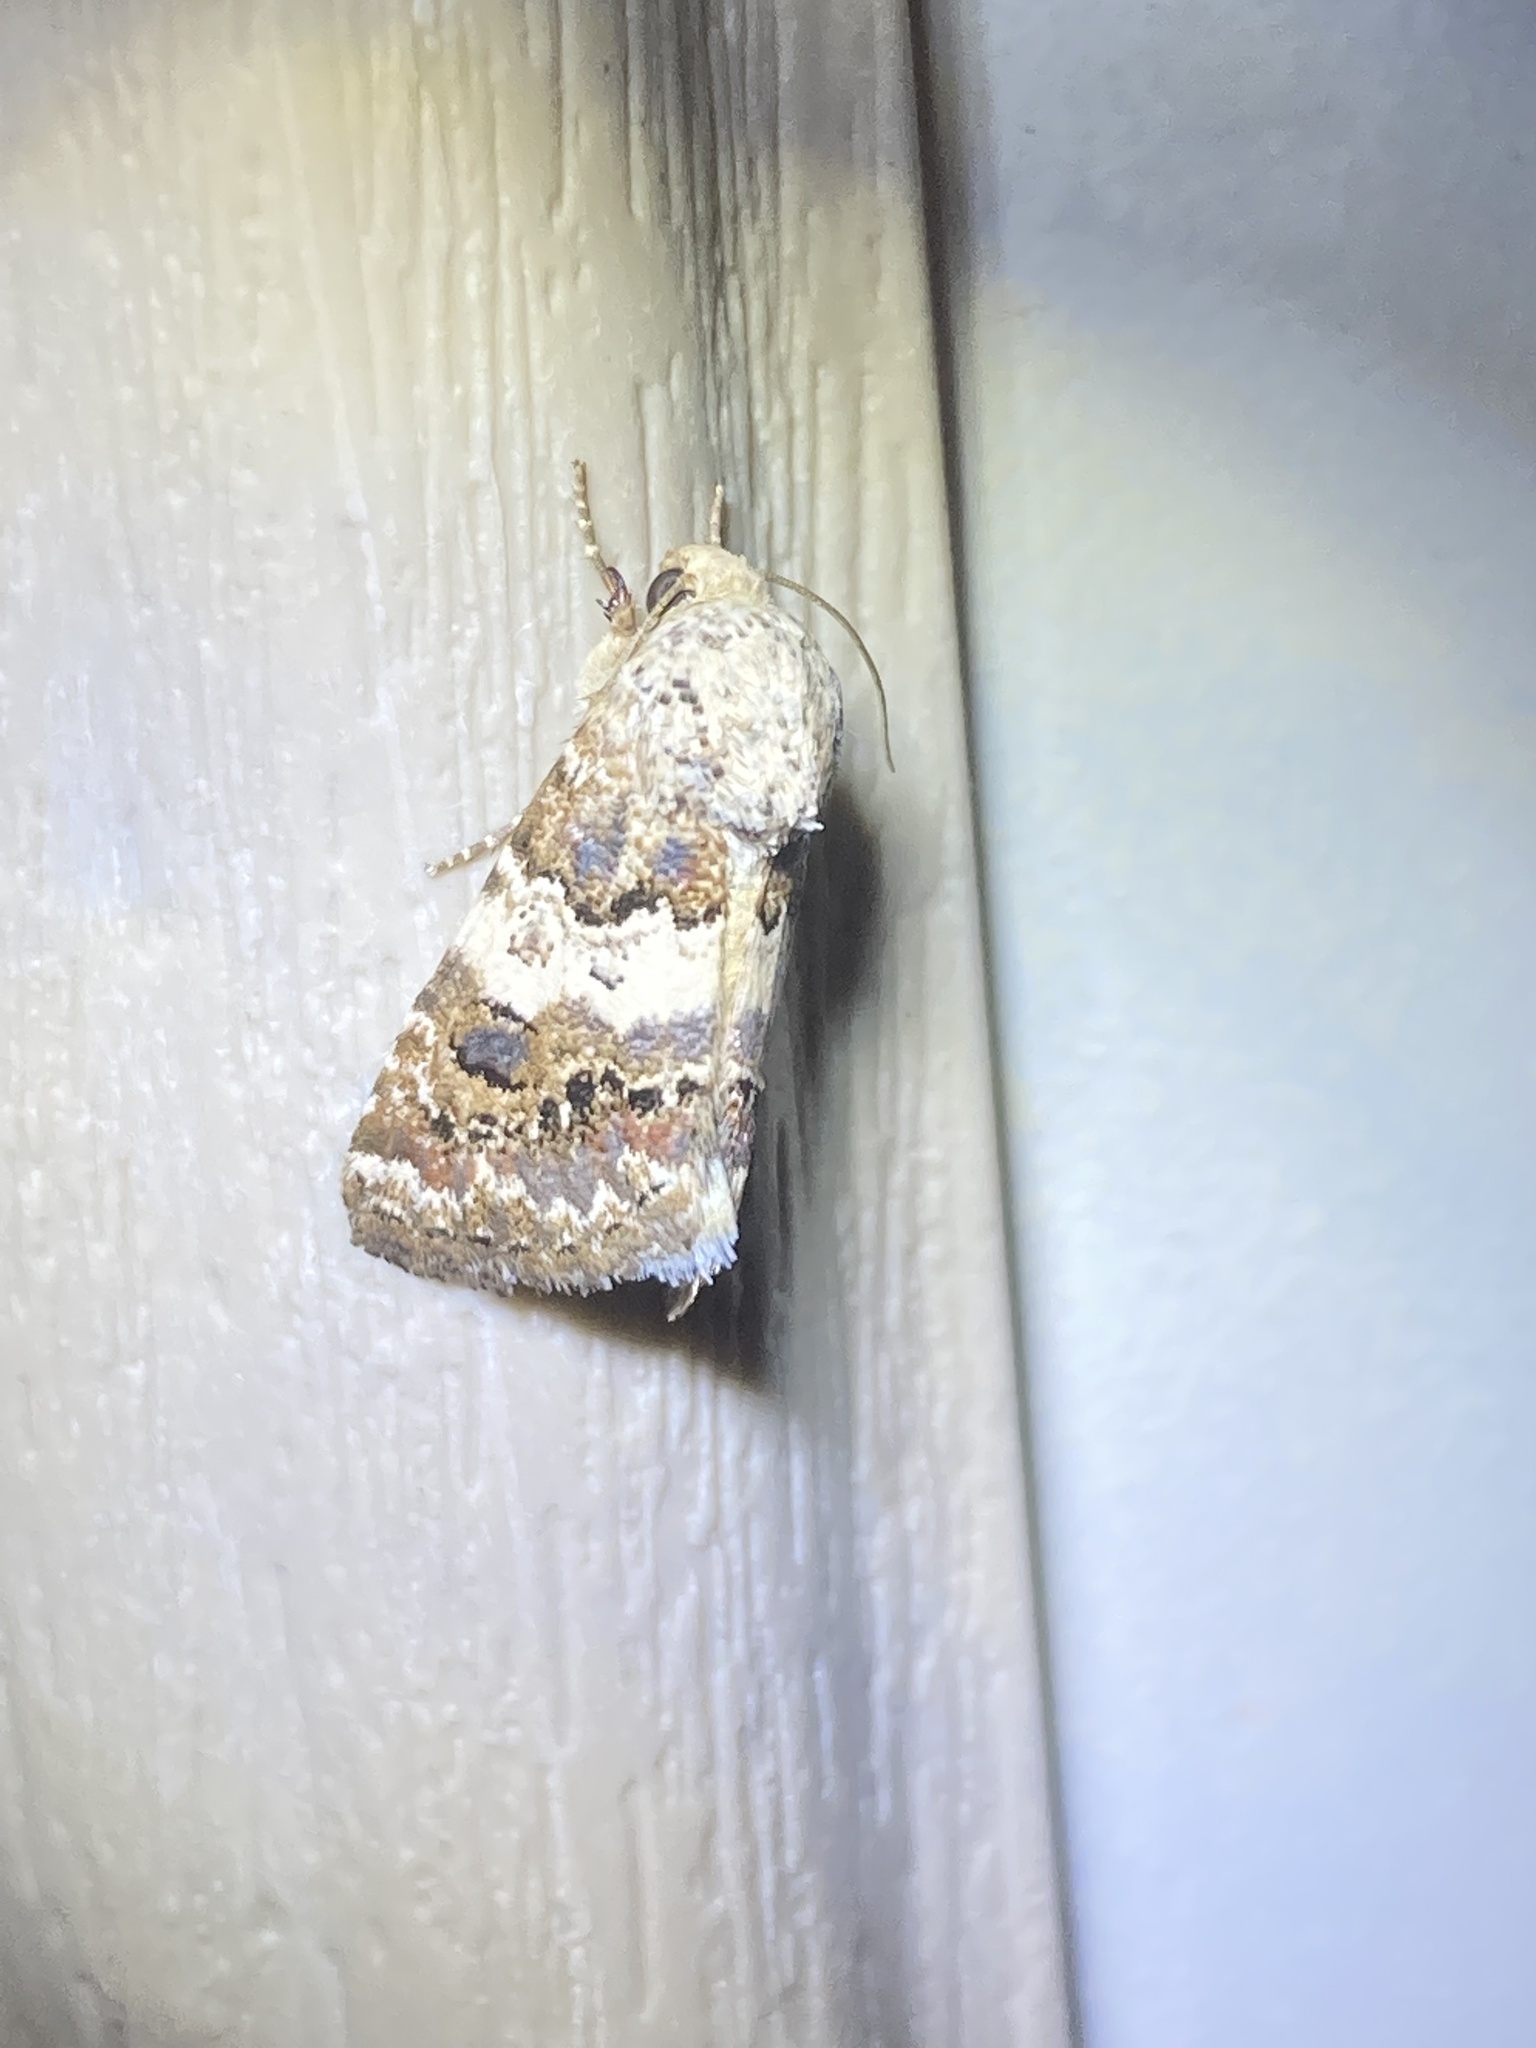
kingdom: Animalia
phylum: Arthropoda
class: Insecta
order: Lepidoptera
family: Noctuidae
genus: Schinia
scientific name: Schinia tertia
